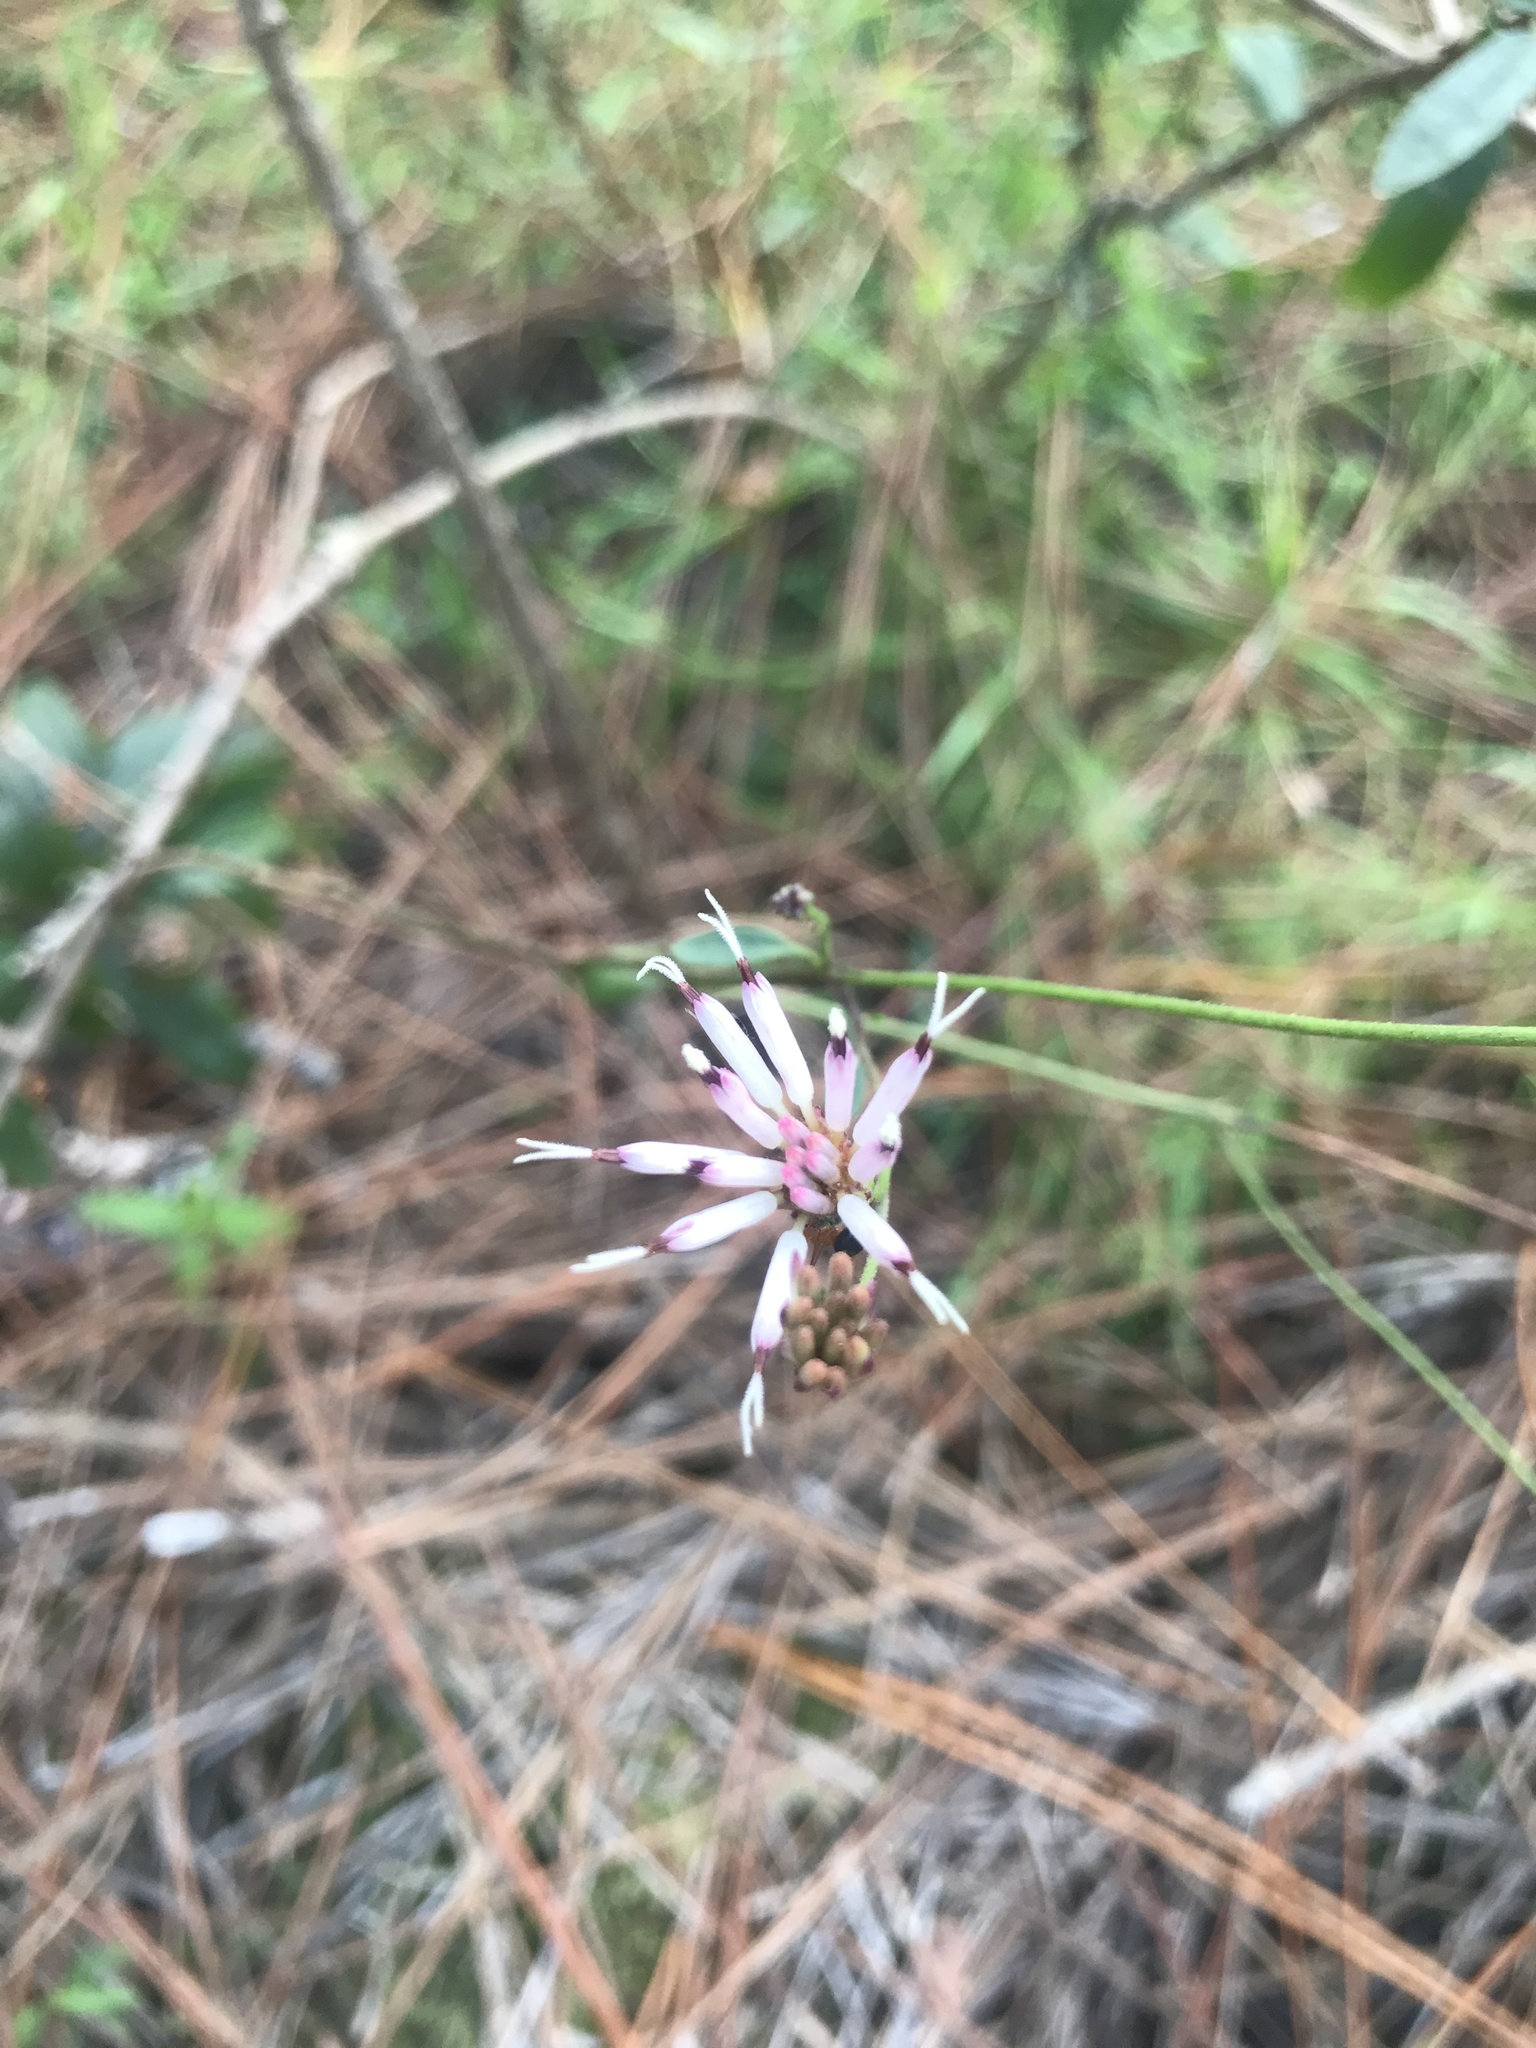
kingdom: Plantae
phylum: Tracheophyta
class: Magnoliopsida
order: Asterales
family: Asteraceae
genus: Palafoxia
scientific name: Palafoxia feayi
